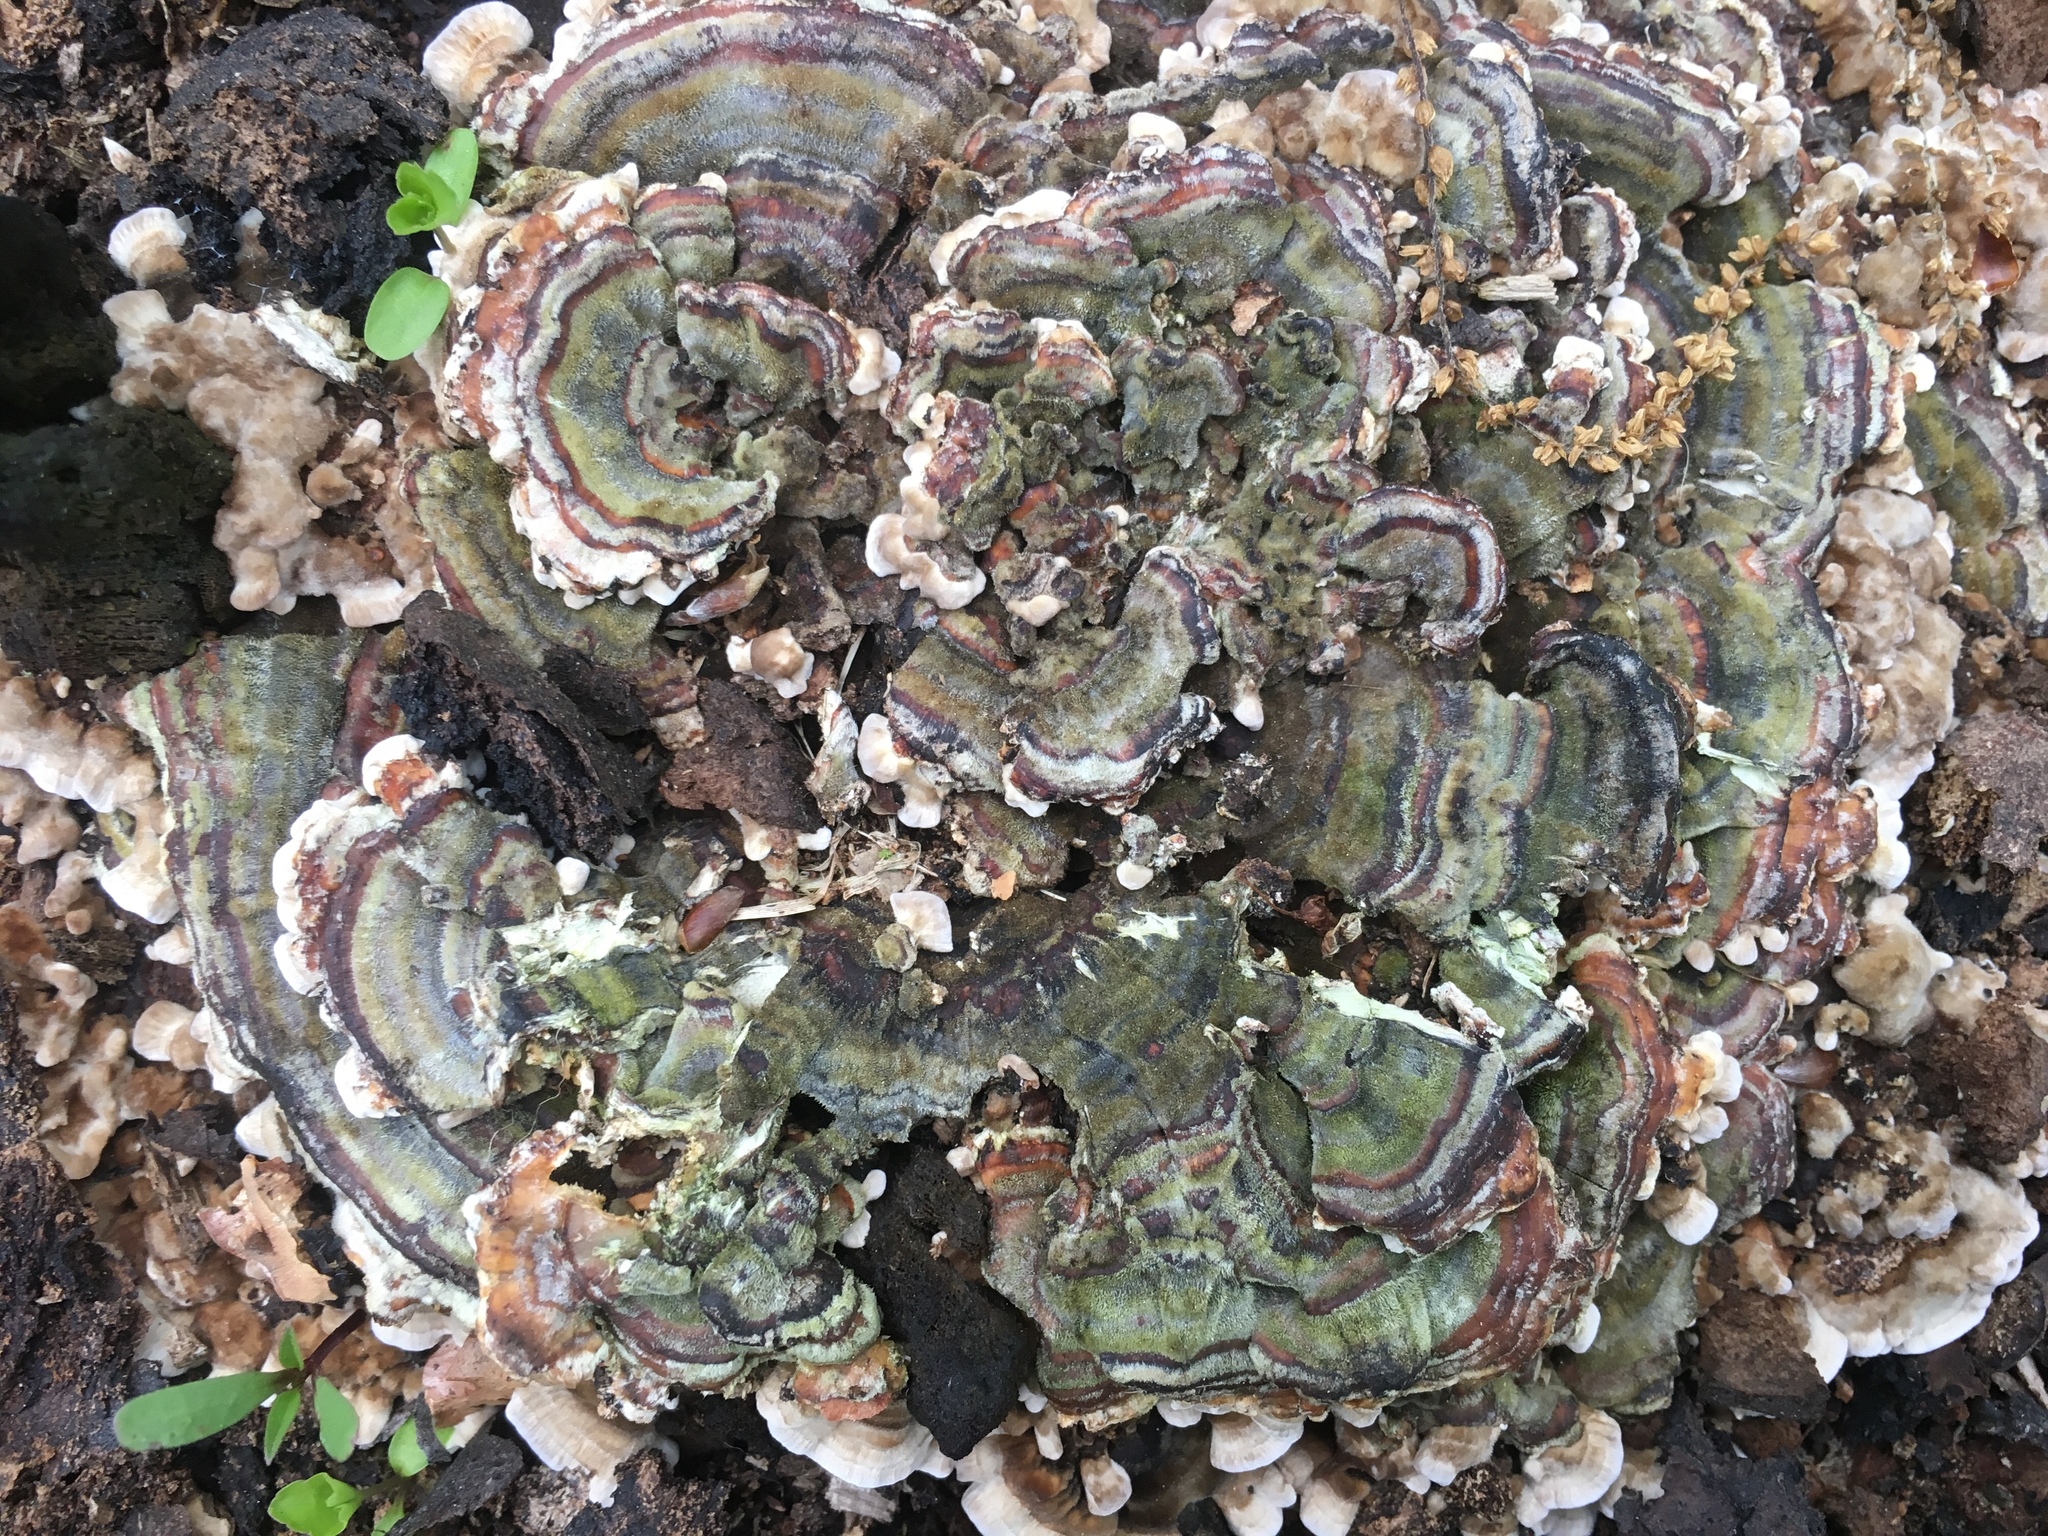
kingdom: Fungi
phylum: Basidiomycota
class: Agaricomycetes
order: Polyporales
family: Polyporaceae
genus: Trametes
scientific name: Trametes versicolor
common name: Turkeytail
